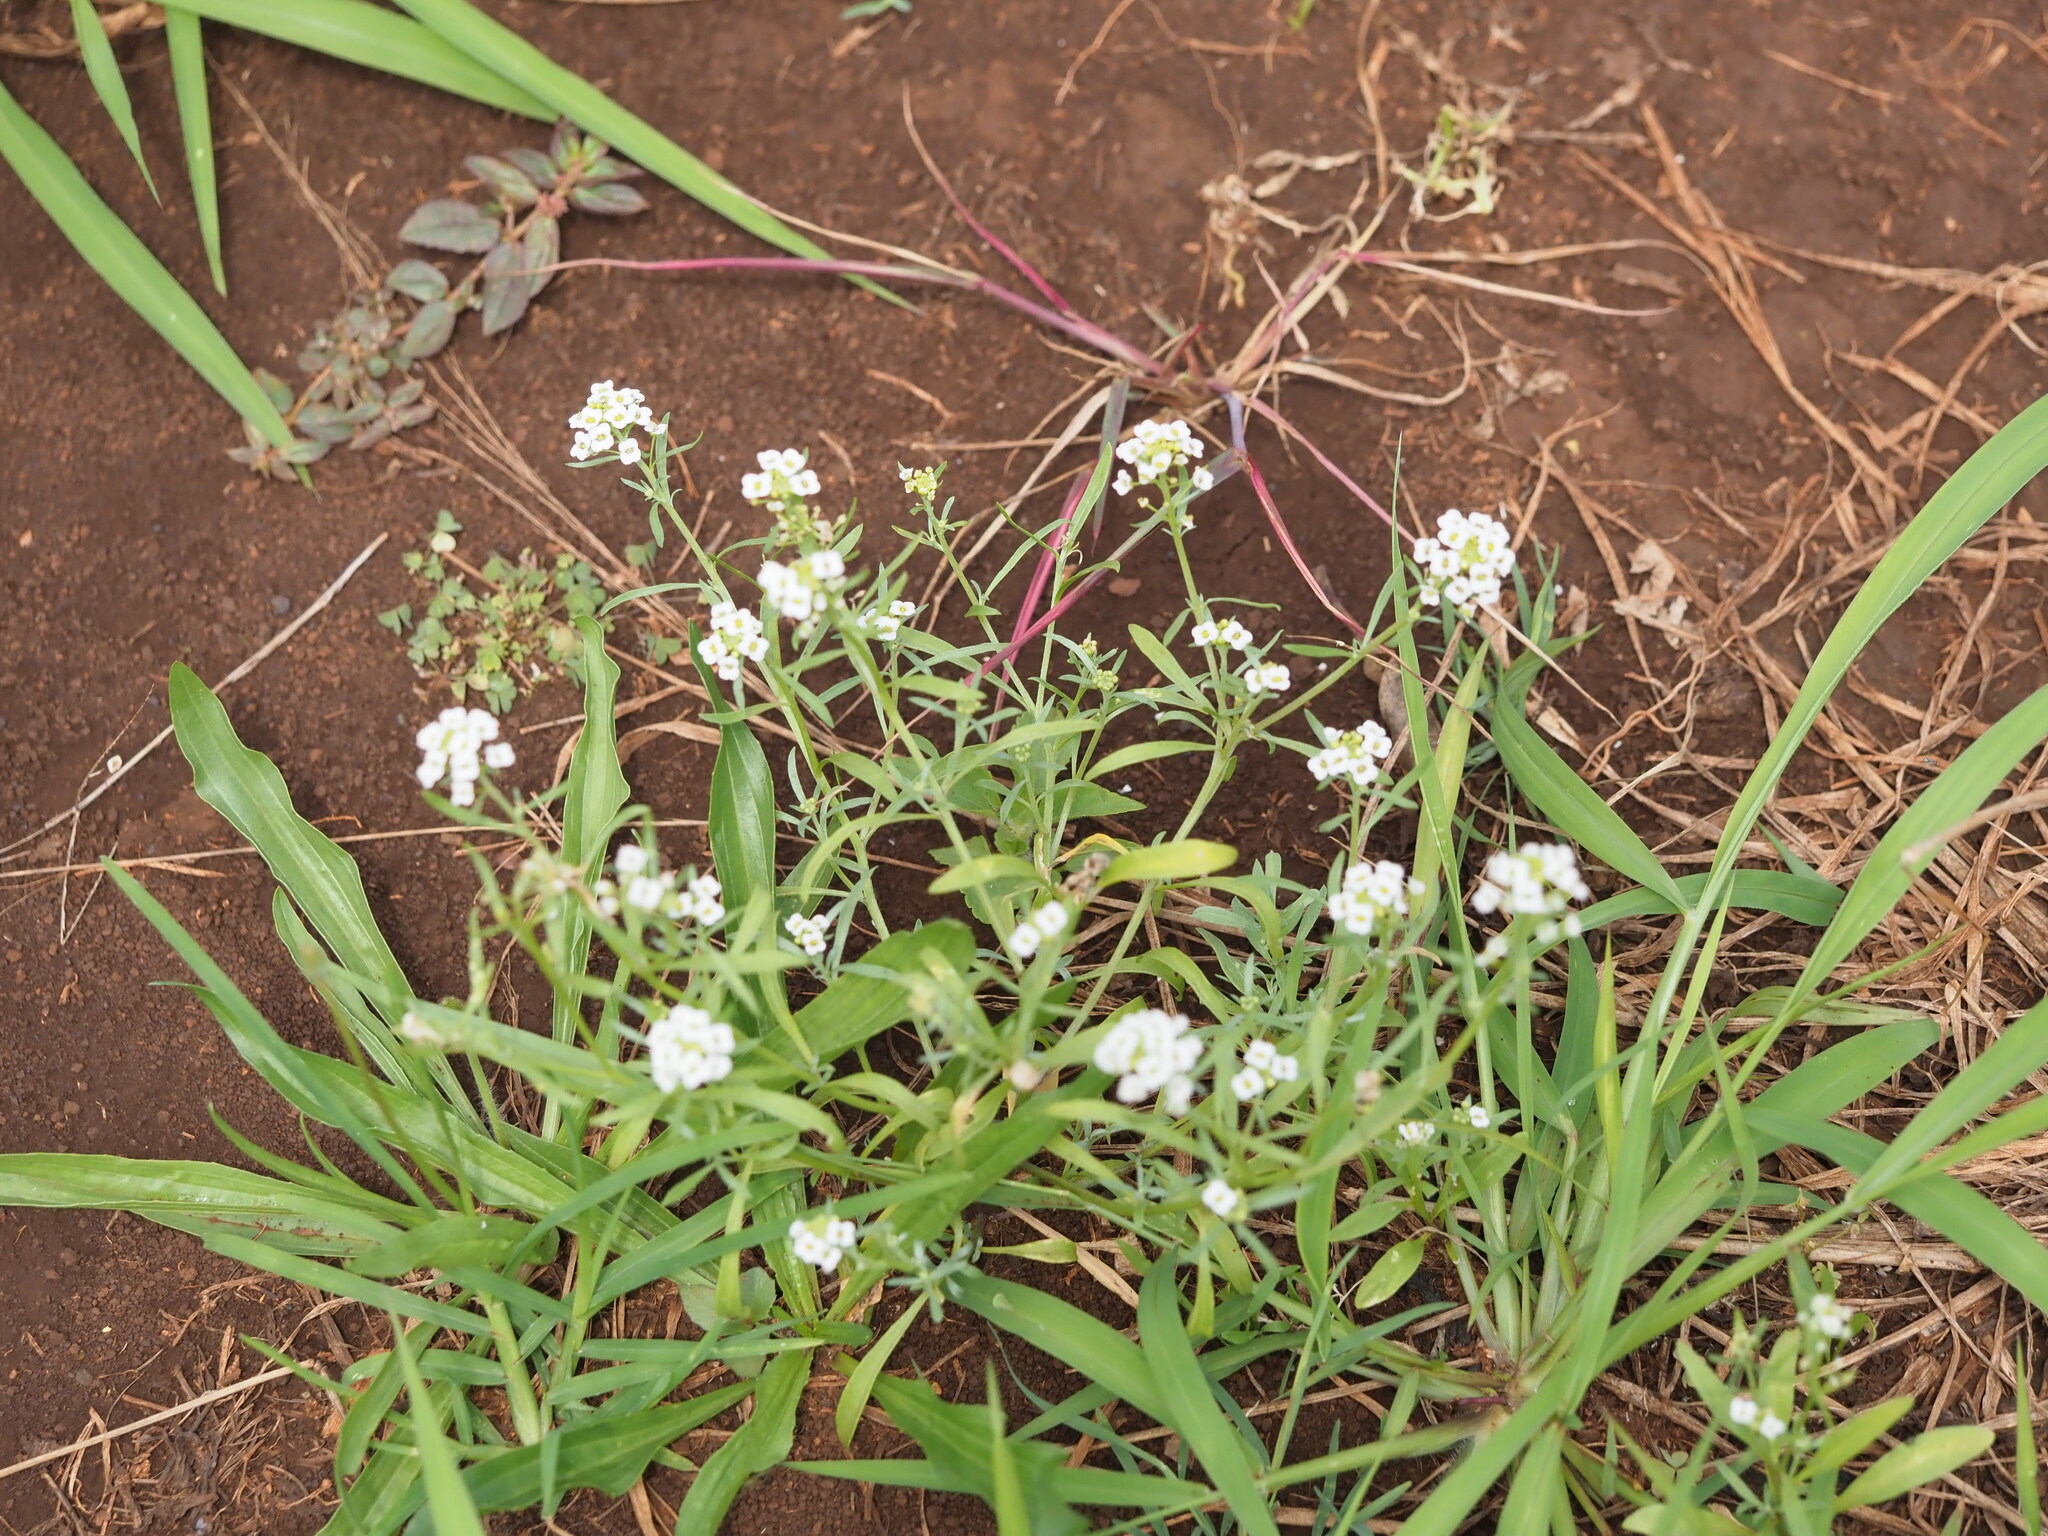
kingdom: Plantae
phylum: Tracheophyta
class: Magnoliopsida
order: Brassicales
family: Brassicaceae
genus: Lobularia
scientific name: Lobularia maritima
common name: Sweet alison
